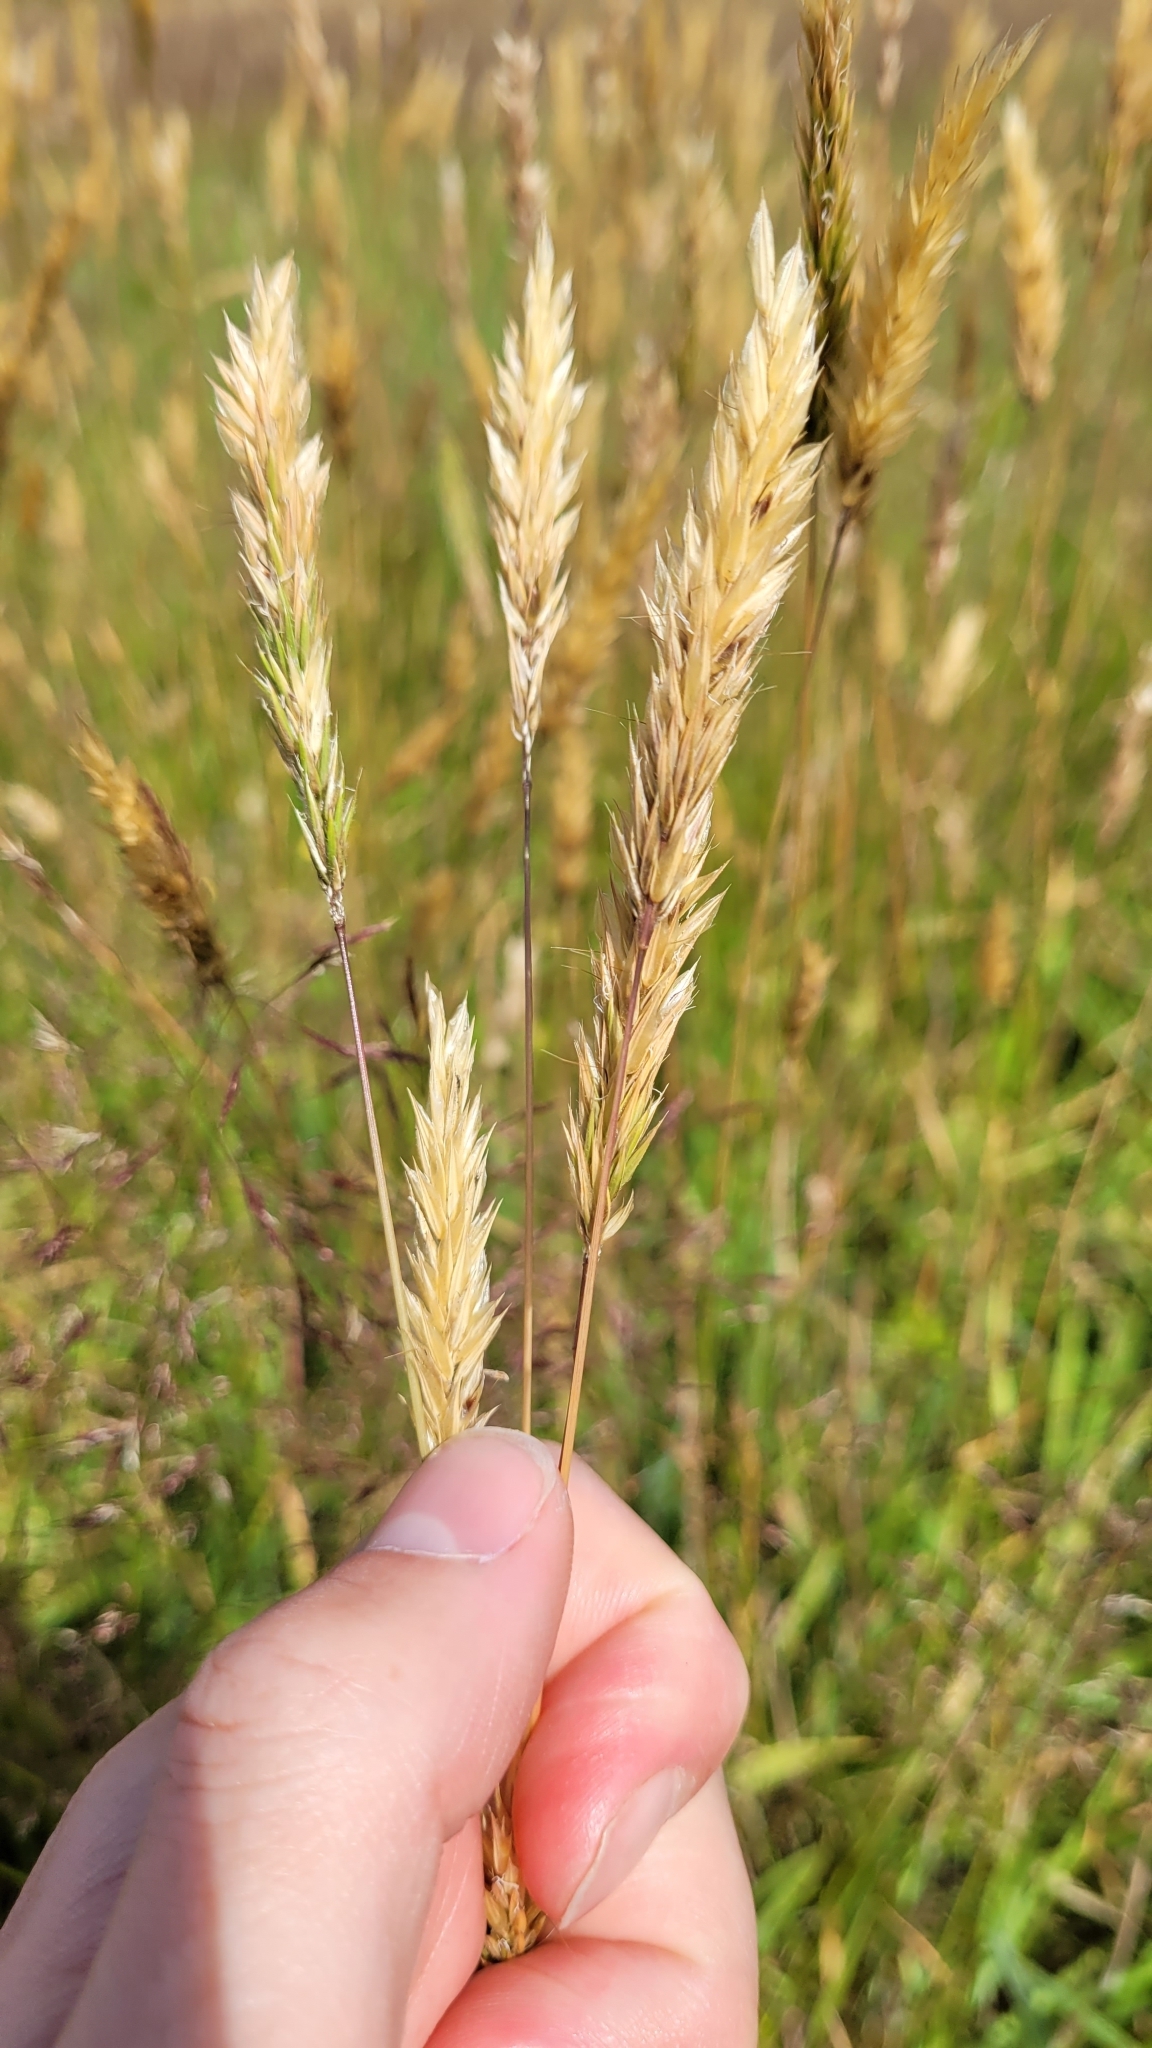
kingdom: Plantae
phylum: Tracheophyta
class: Liliopsida
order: Poales
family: Poaceae
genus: Anthoxanthum
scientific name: Anthoxanthum odoratum
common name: Sweet vernalgrass
